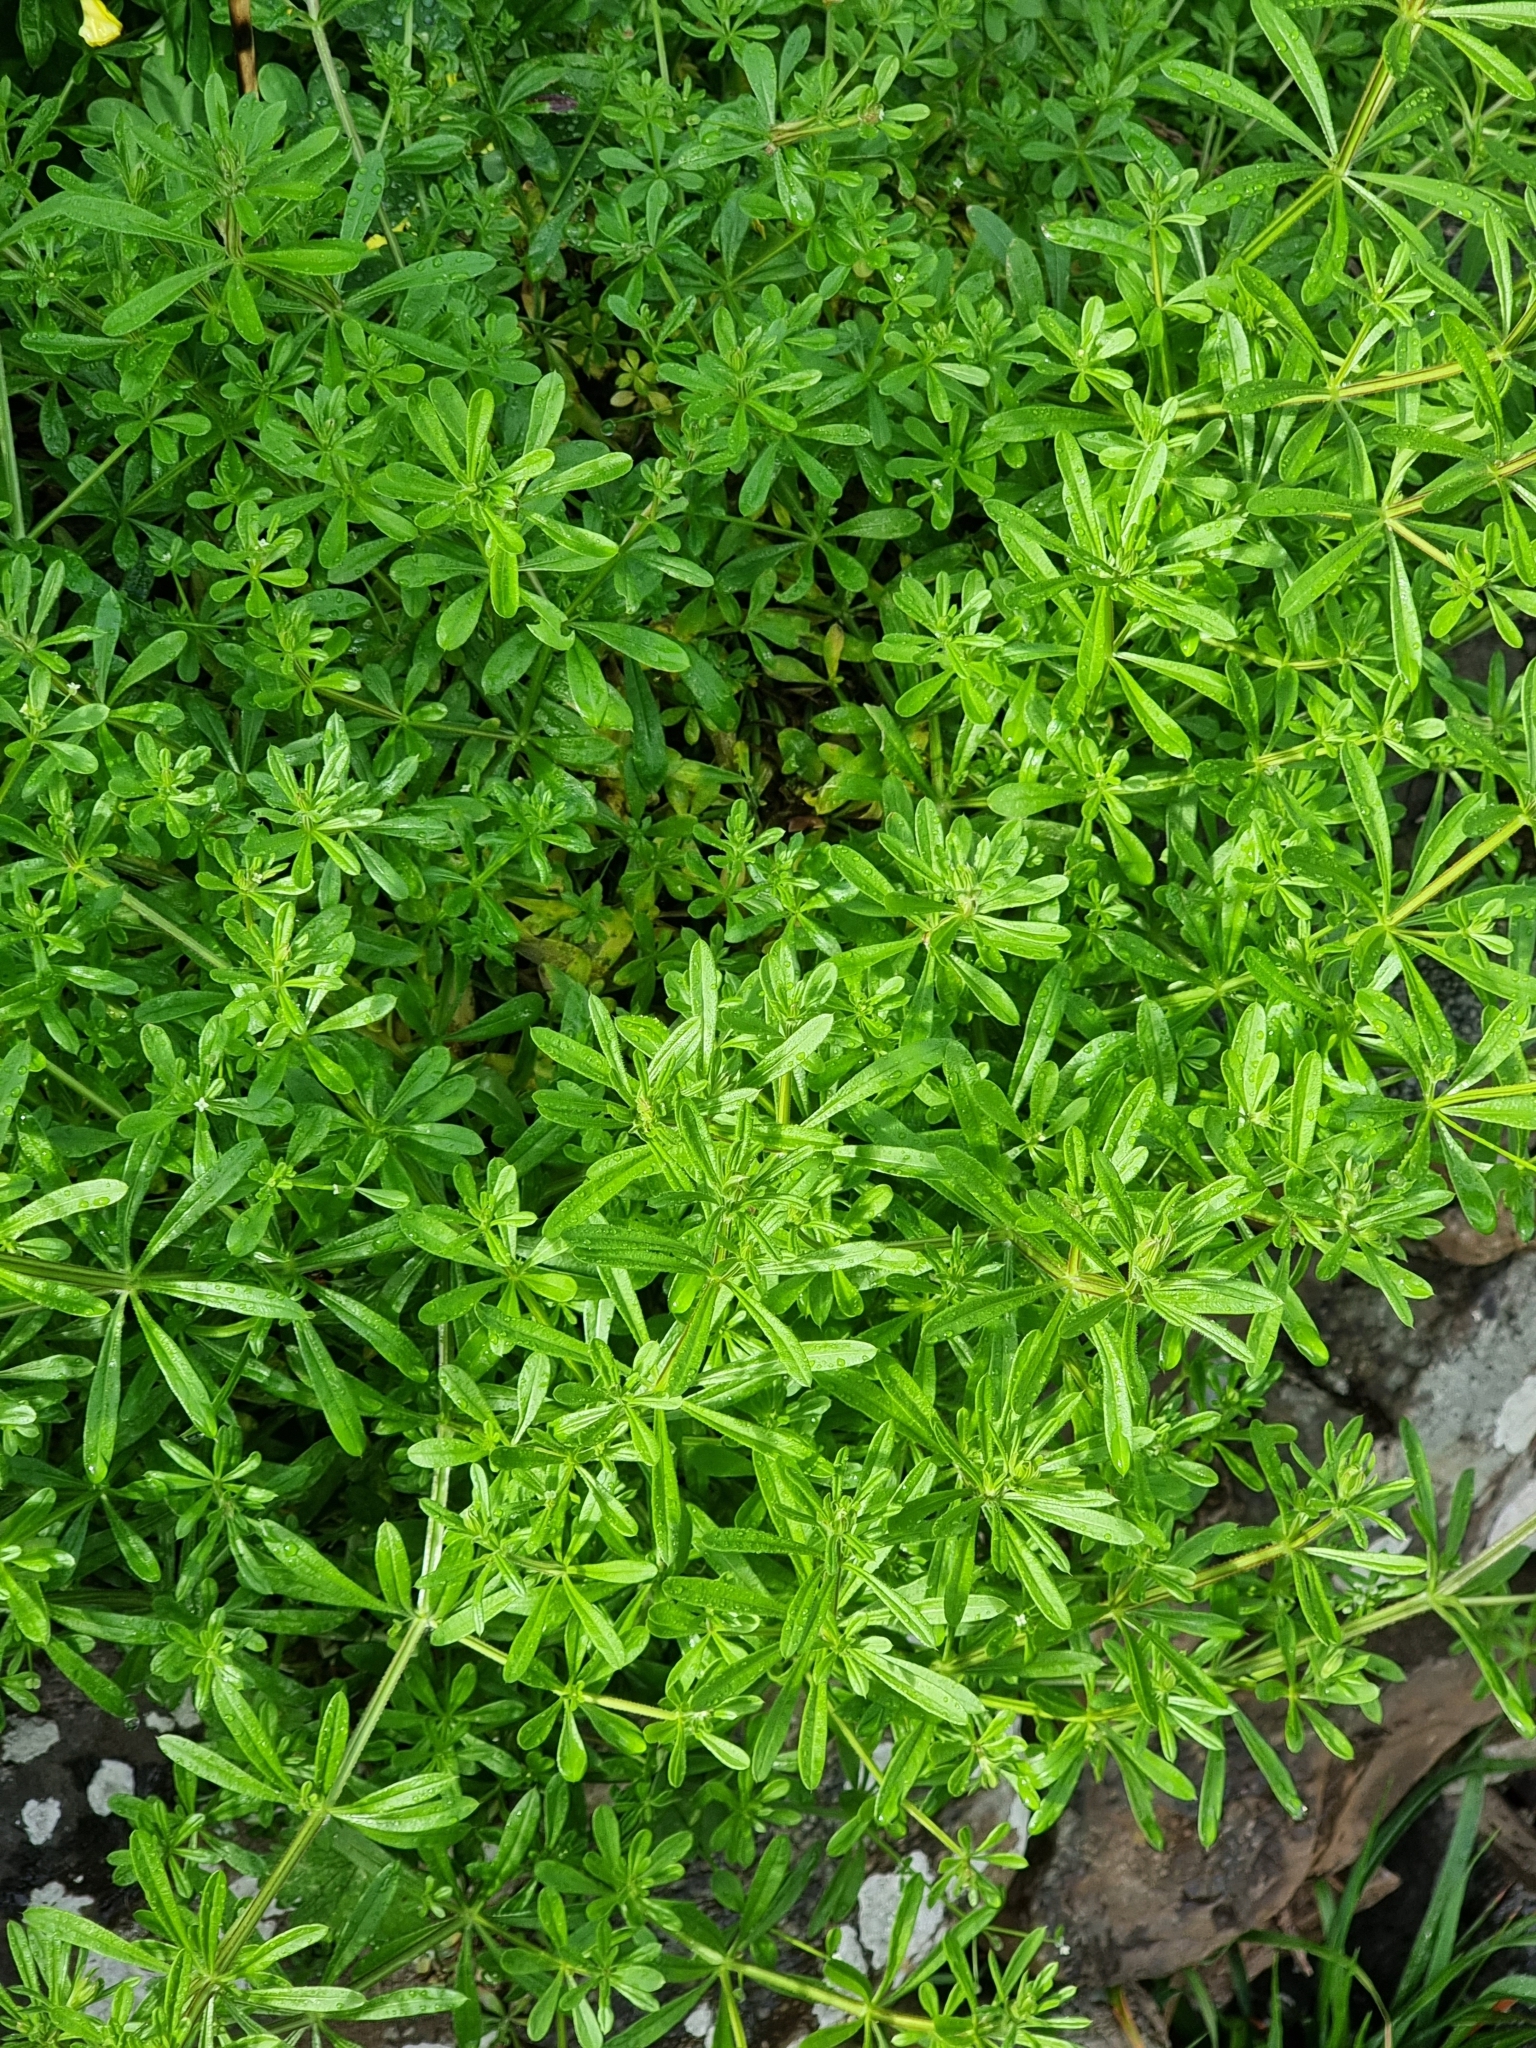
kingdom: Plantae
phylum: Tracheophyta
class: Magnoliopsida
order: Gentianales
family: Rubiaceae
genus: Galium
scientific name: Galium aparine
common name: Cleavers
